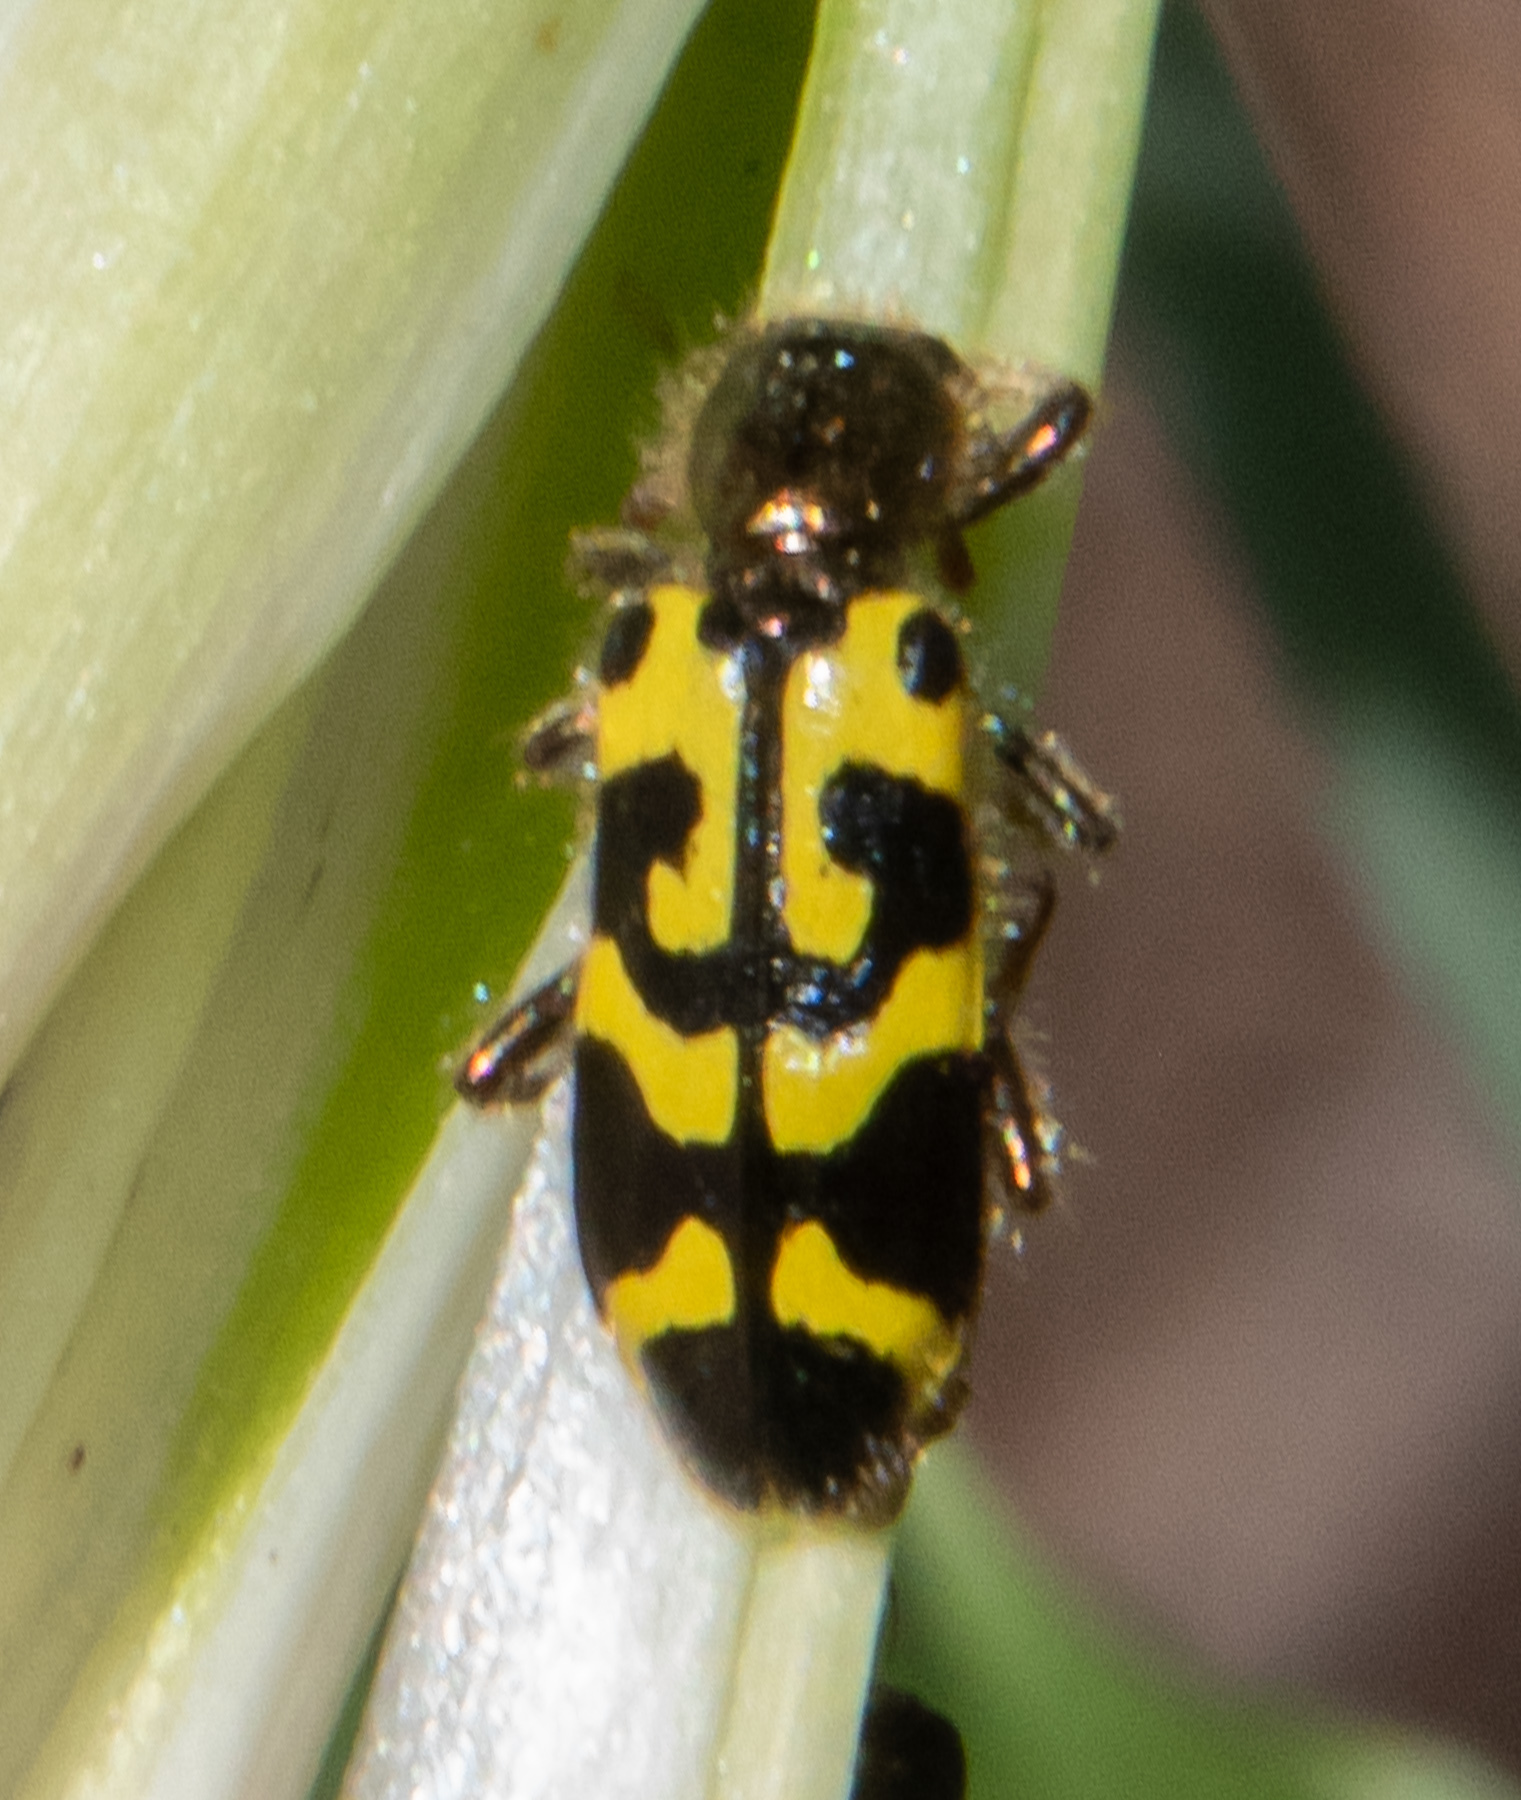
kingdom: Animalia
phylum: Arthropoda
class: Insecta
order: Coleoptera
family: Cleridae
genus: Trichodes
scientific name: Trichodes ornatus
